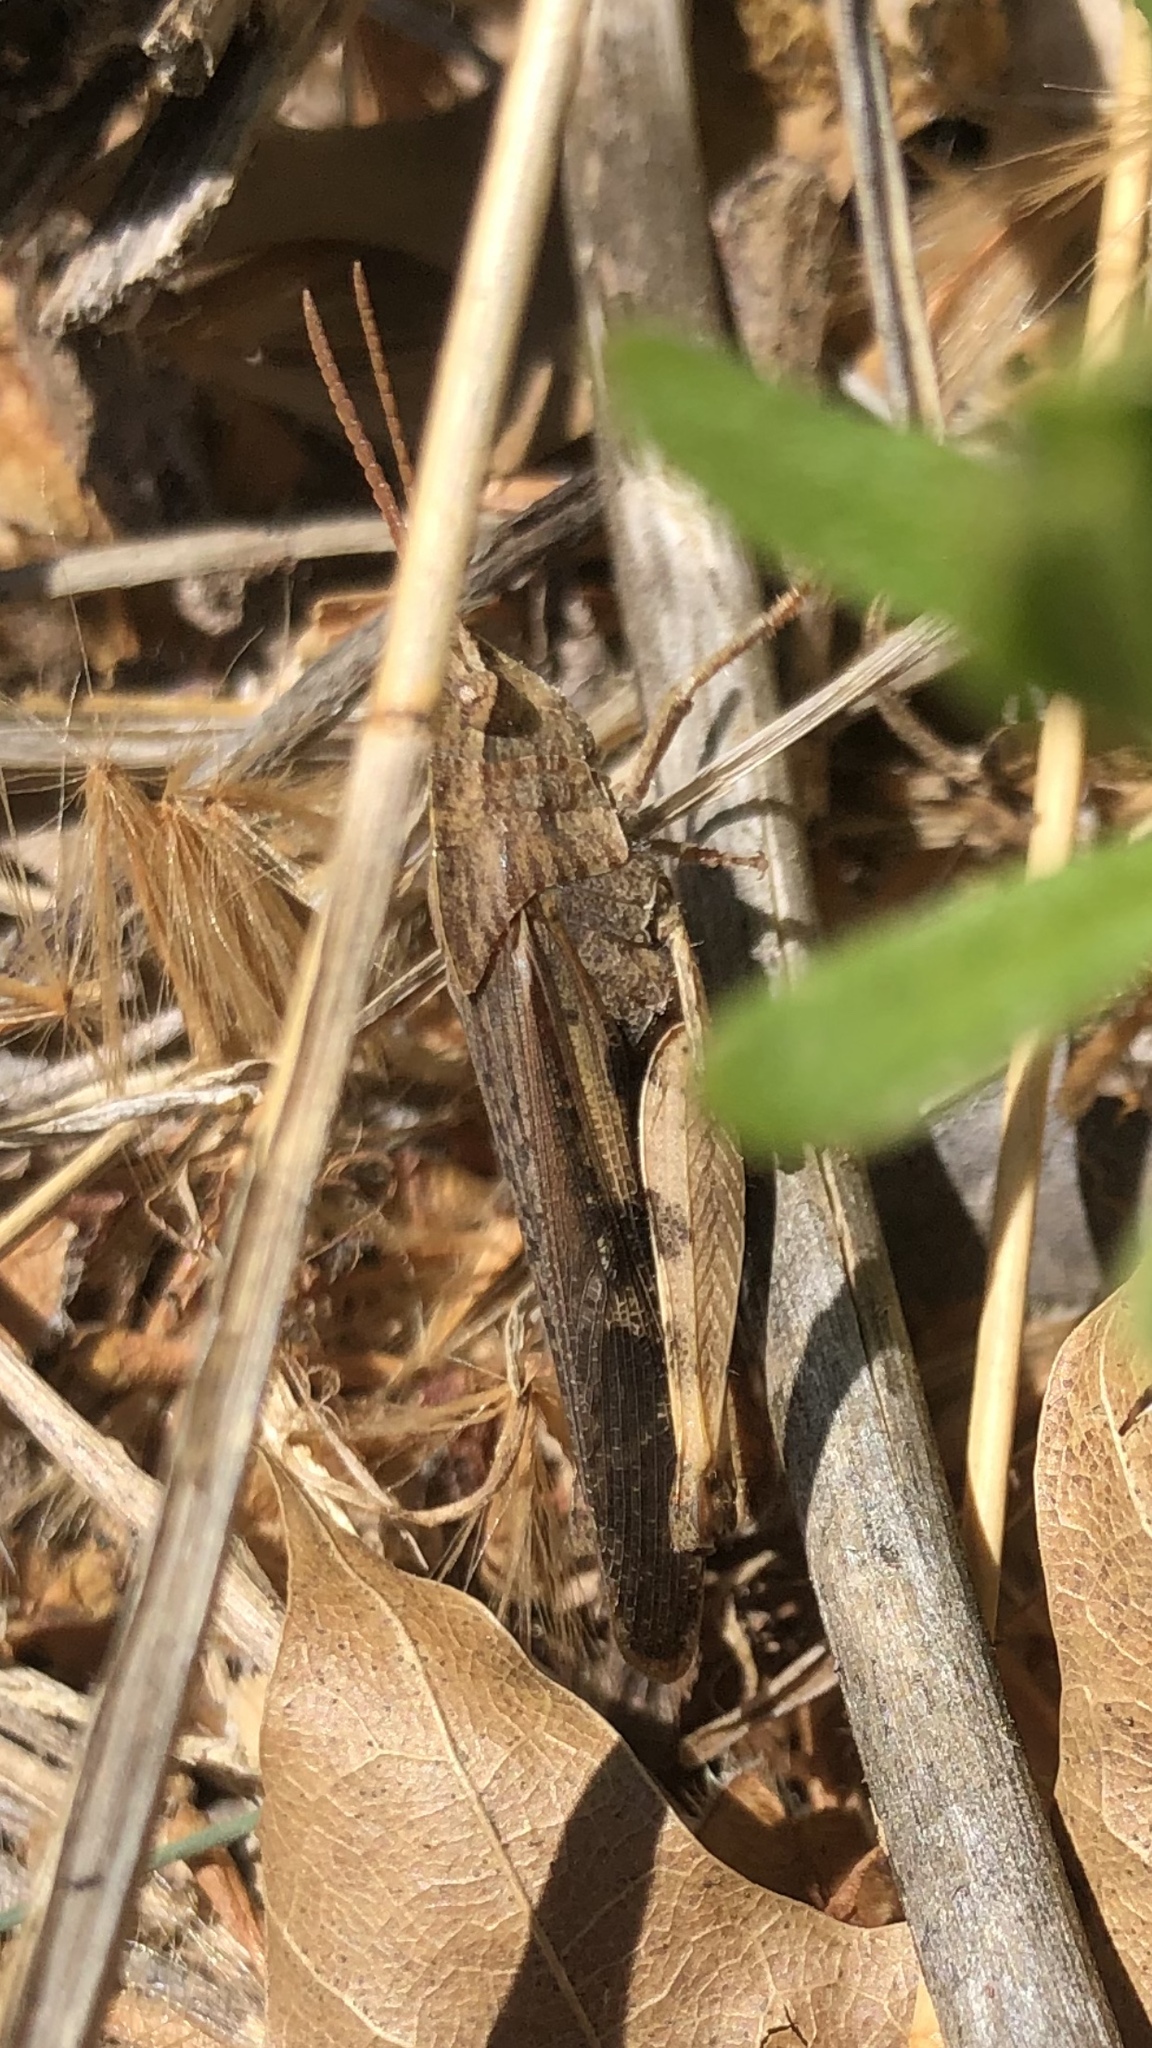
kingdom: Animalia
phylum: Arthropoda
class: Insecta
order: Orthoptera
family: Acrididae
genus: Chortophaga
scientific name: Chortophaga viridifasciata
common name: Green-striped grasshopper
